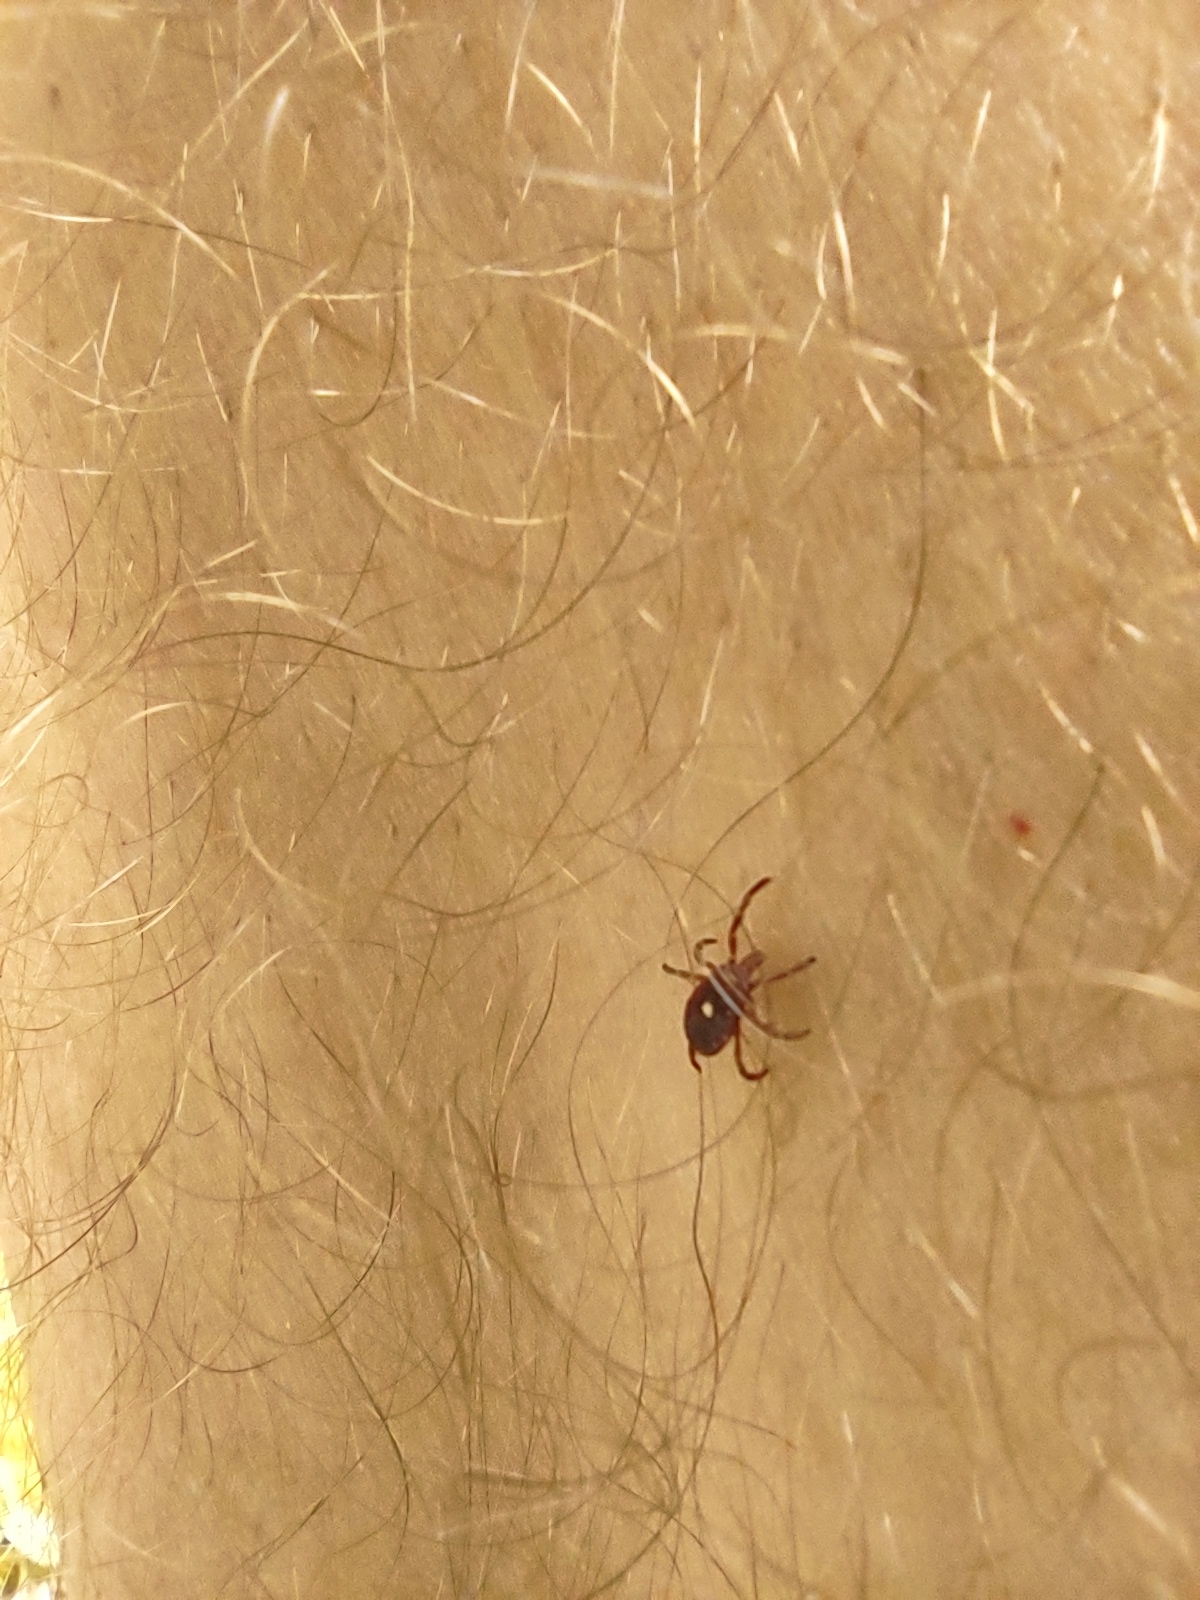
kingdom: Animalia
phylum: Arthropoda
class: Arachnida
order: Ixodida
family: Ixodidae
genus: Amblyomma
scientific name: Amblyomma americanum
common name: Lone star tick
